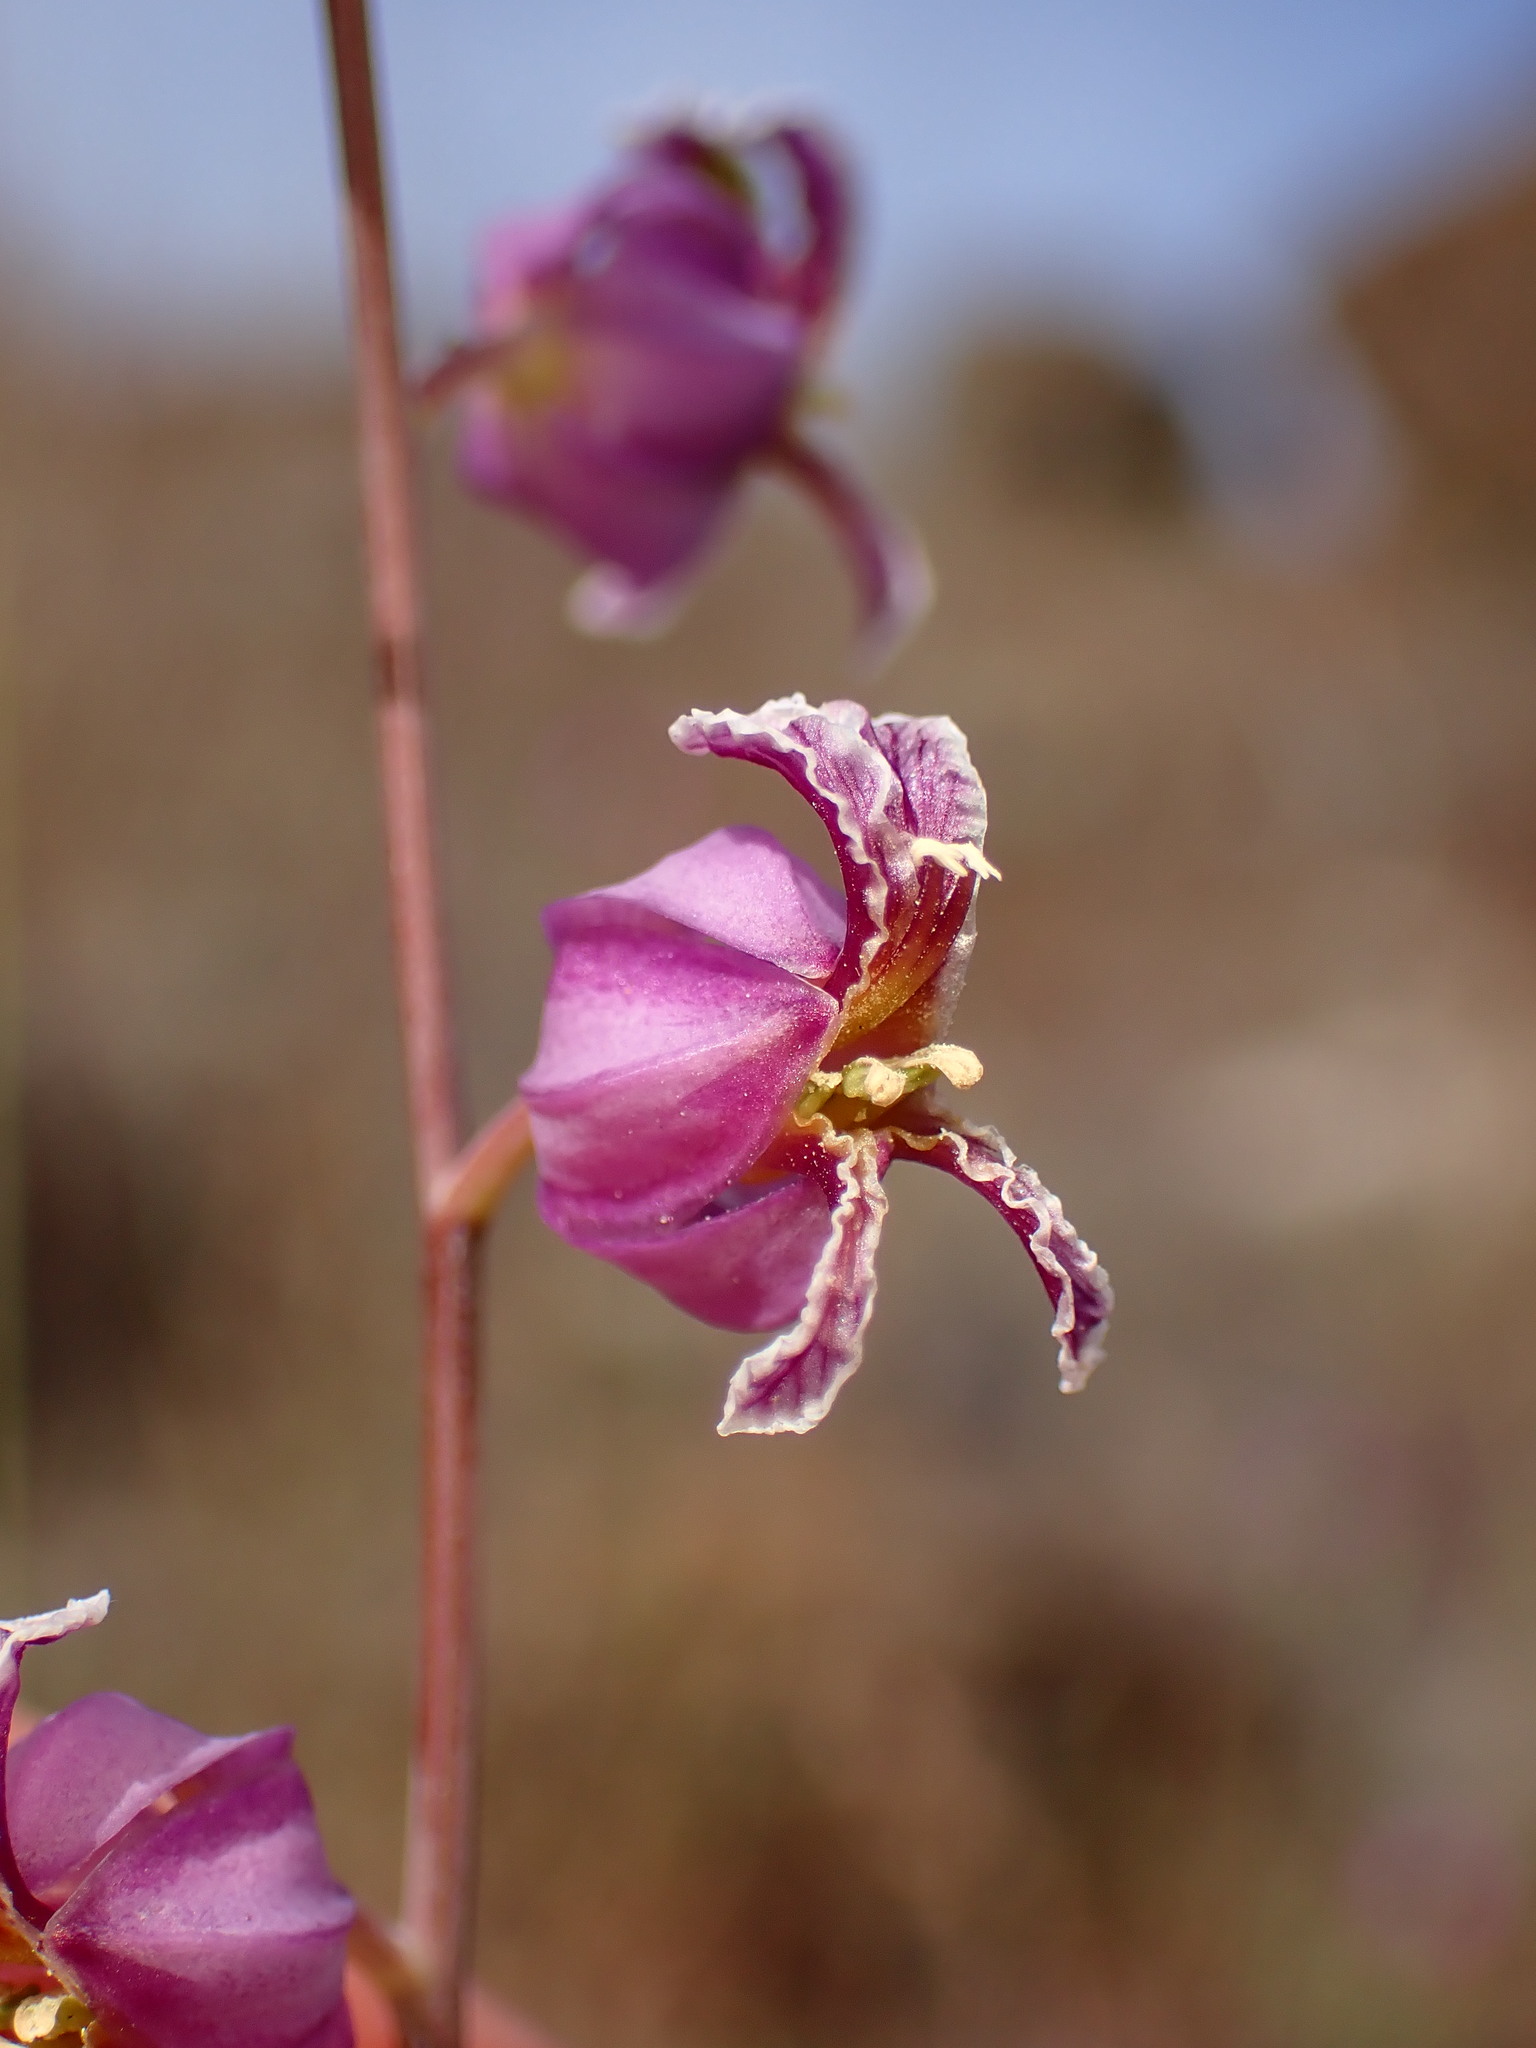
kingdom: Plantae
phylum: Tracheophyta
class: Magnoliopsida
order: Brassicales
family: Brassicaceae
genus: Streptanthus
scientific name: Streptanthus glandulosus
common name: Jewel-flower
